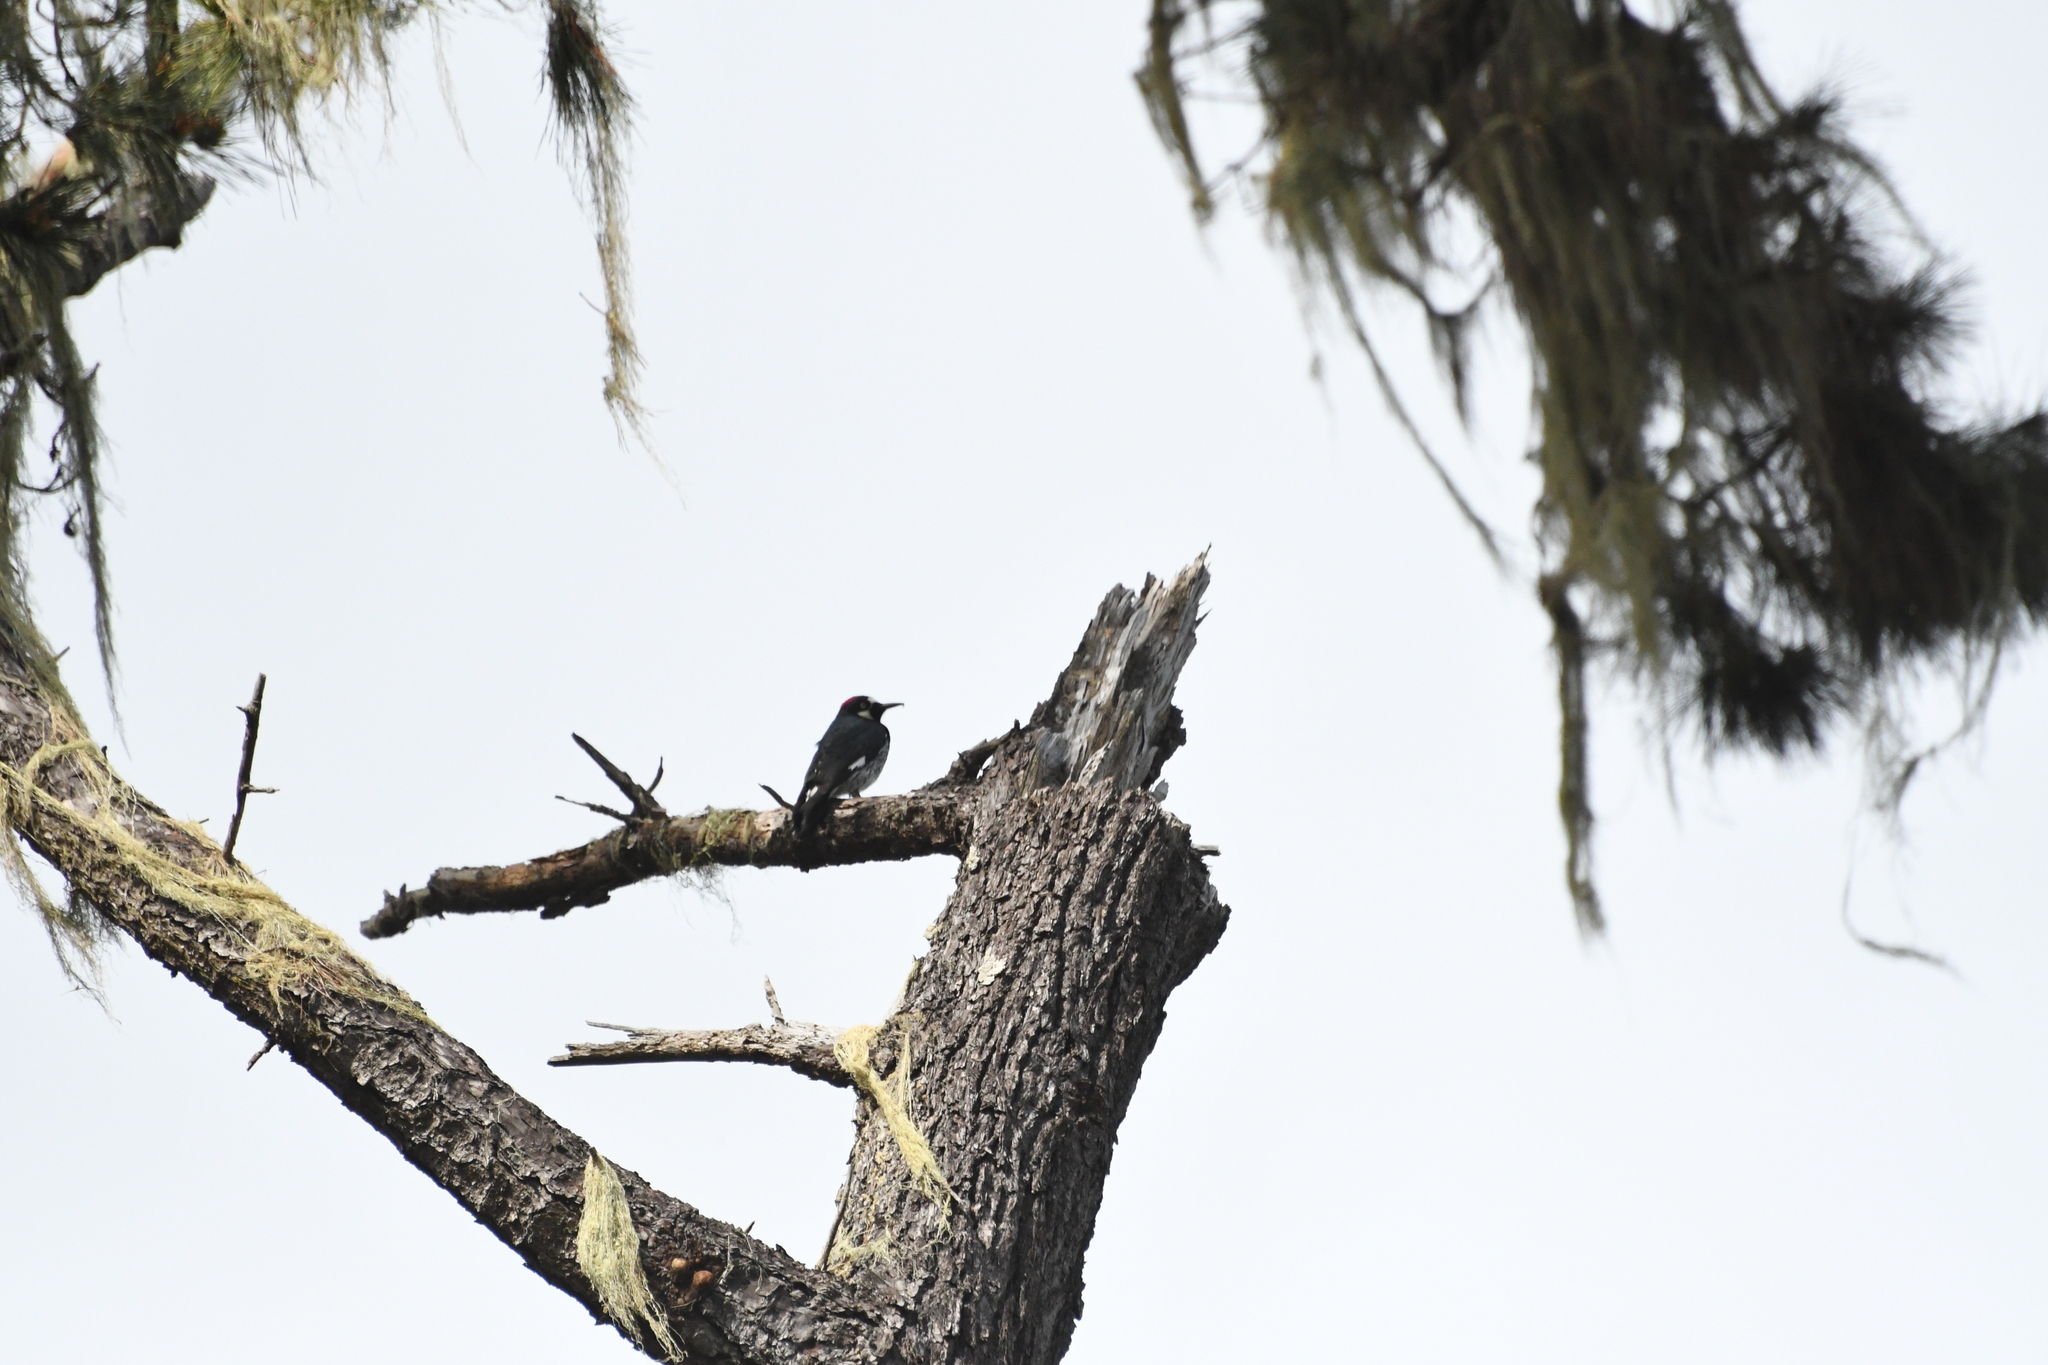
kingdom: Animalia
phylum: Chordata
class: Aves
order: Piciformes
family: Picidae
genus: Melanerpes
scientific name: Melanerpes formicivorus
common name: Acorn woodpecker
